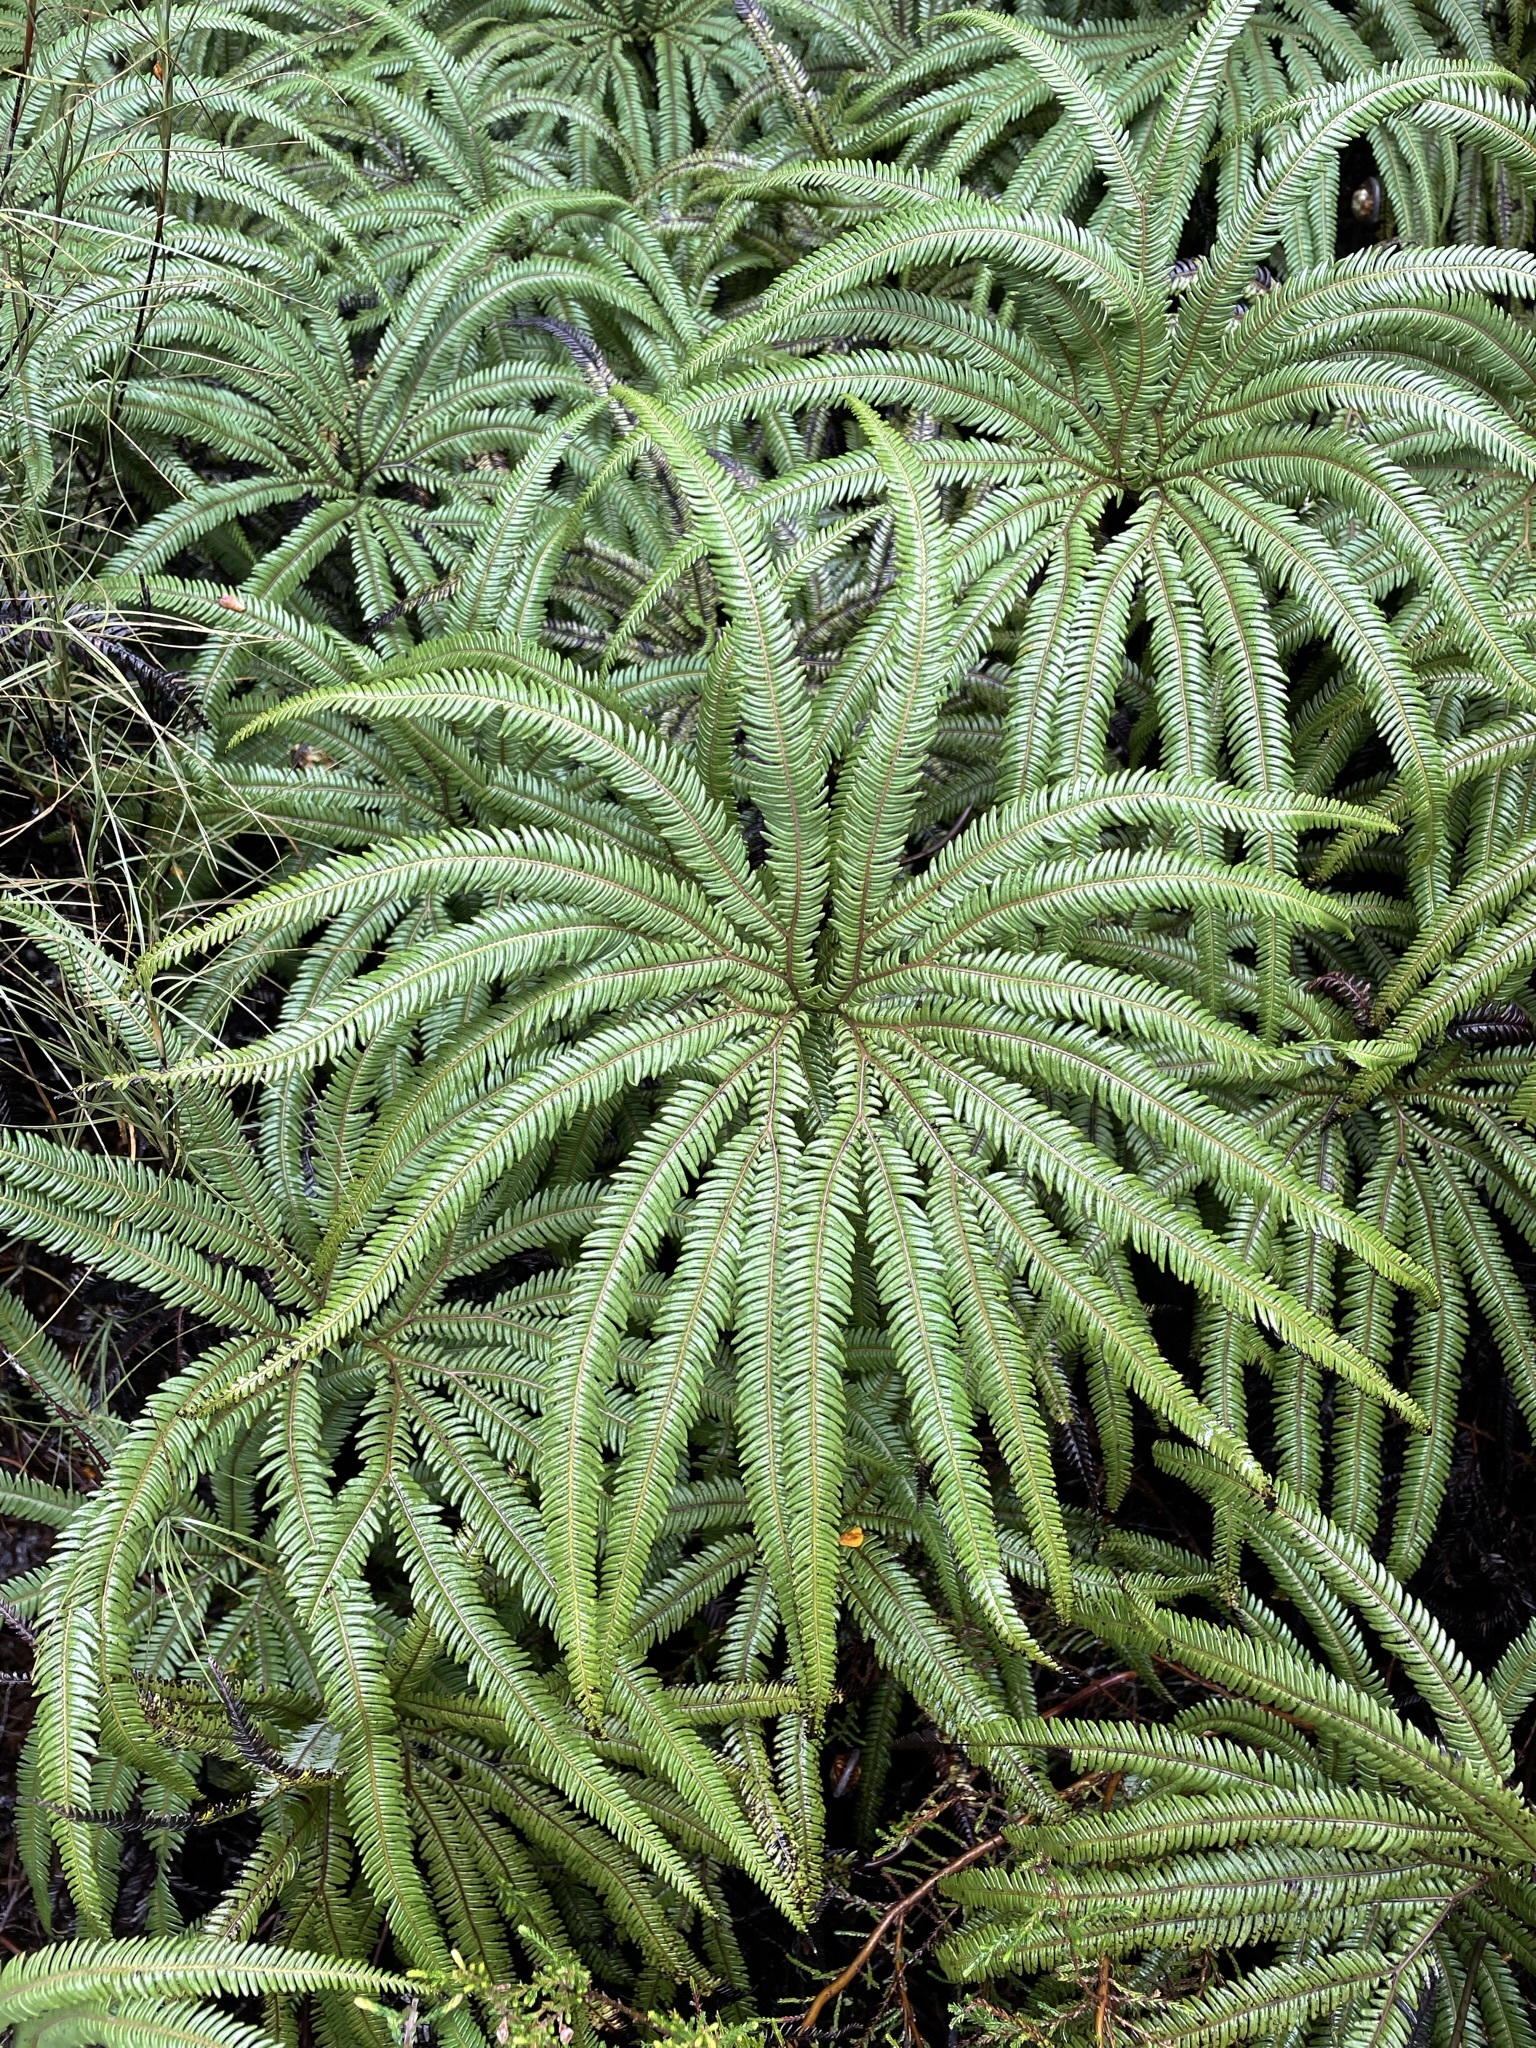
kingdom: Plantae
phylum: Tracheophyta
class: Polypodiopsida
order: Gleicheniales
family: Gleicheniaceae
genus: Sticherus
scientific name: Sticherus cunninghamii
